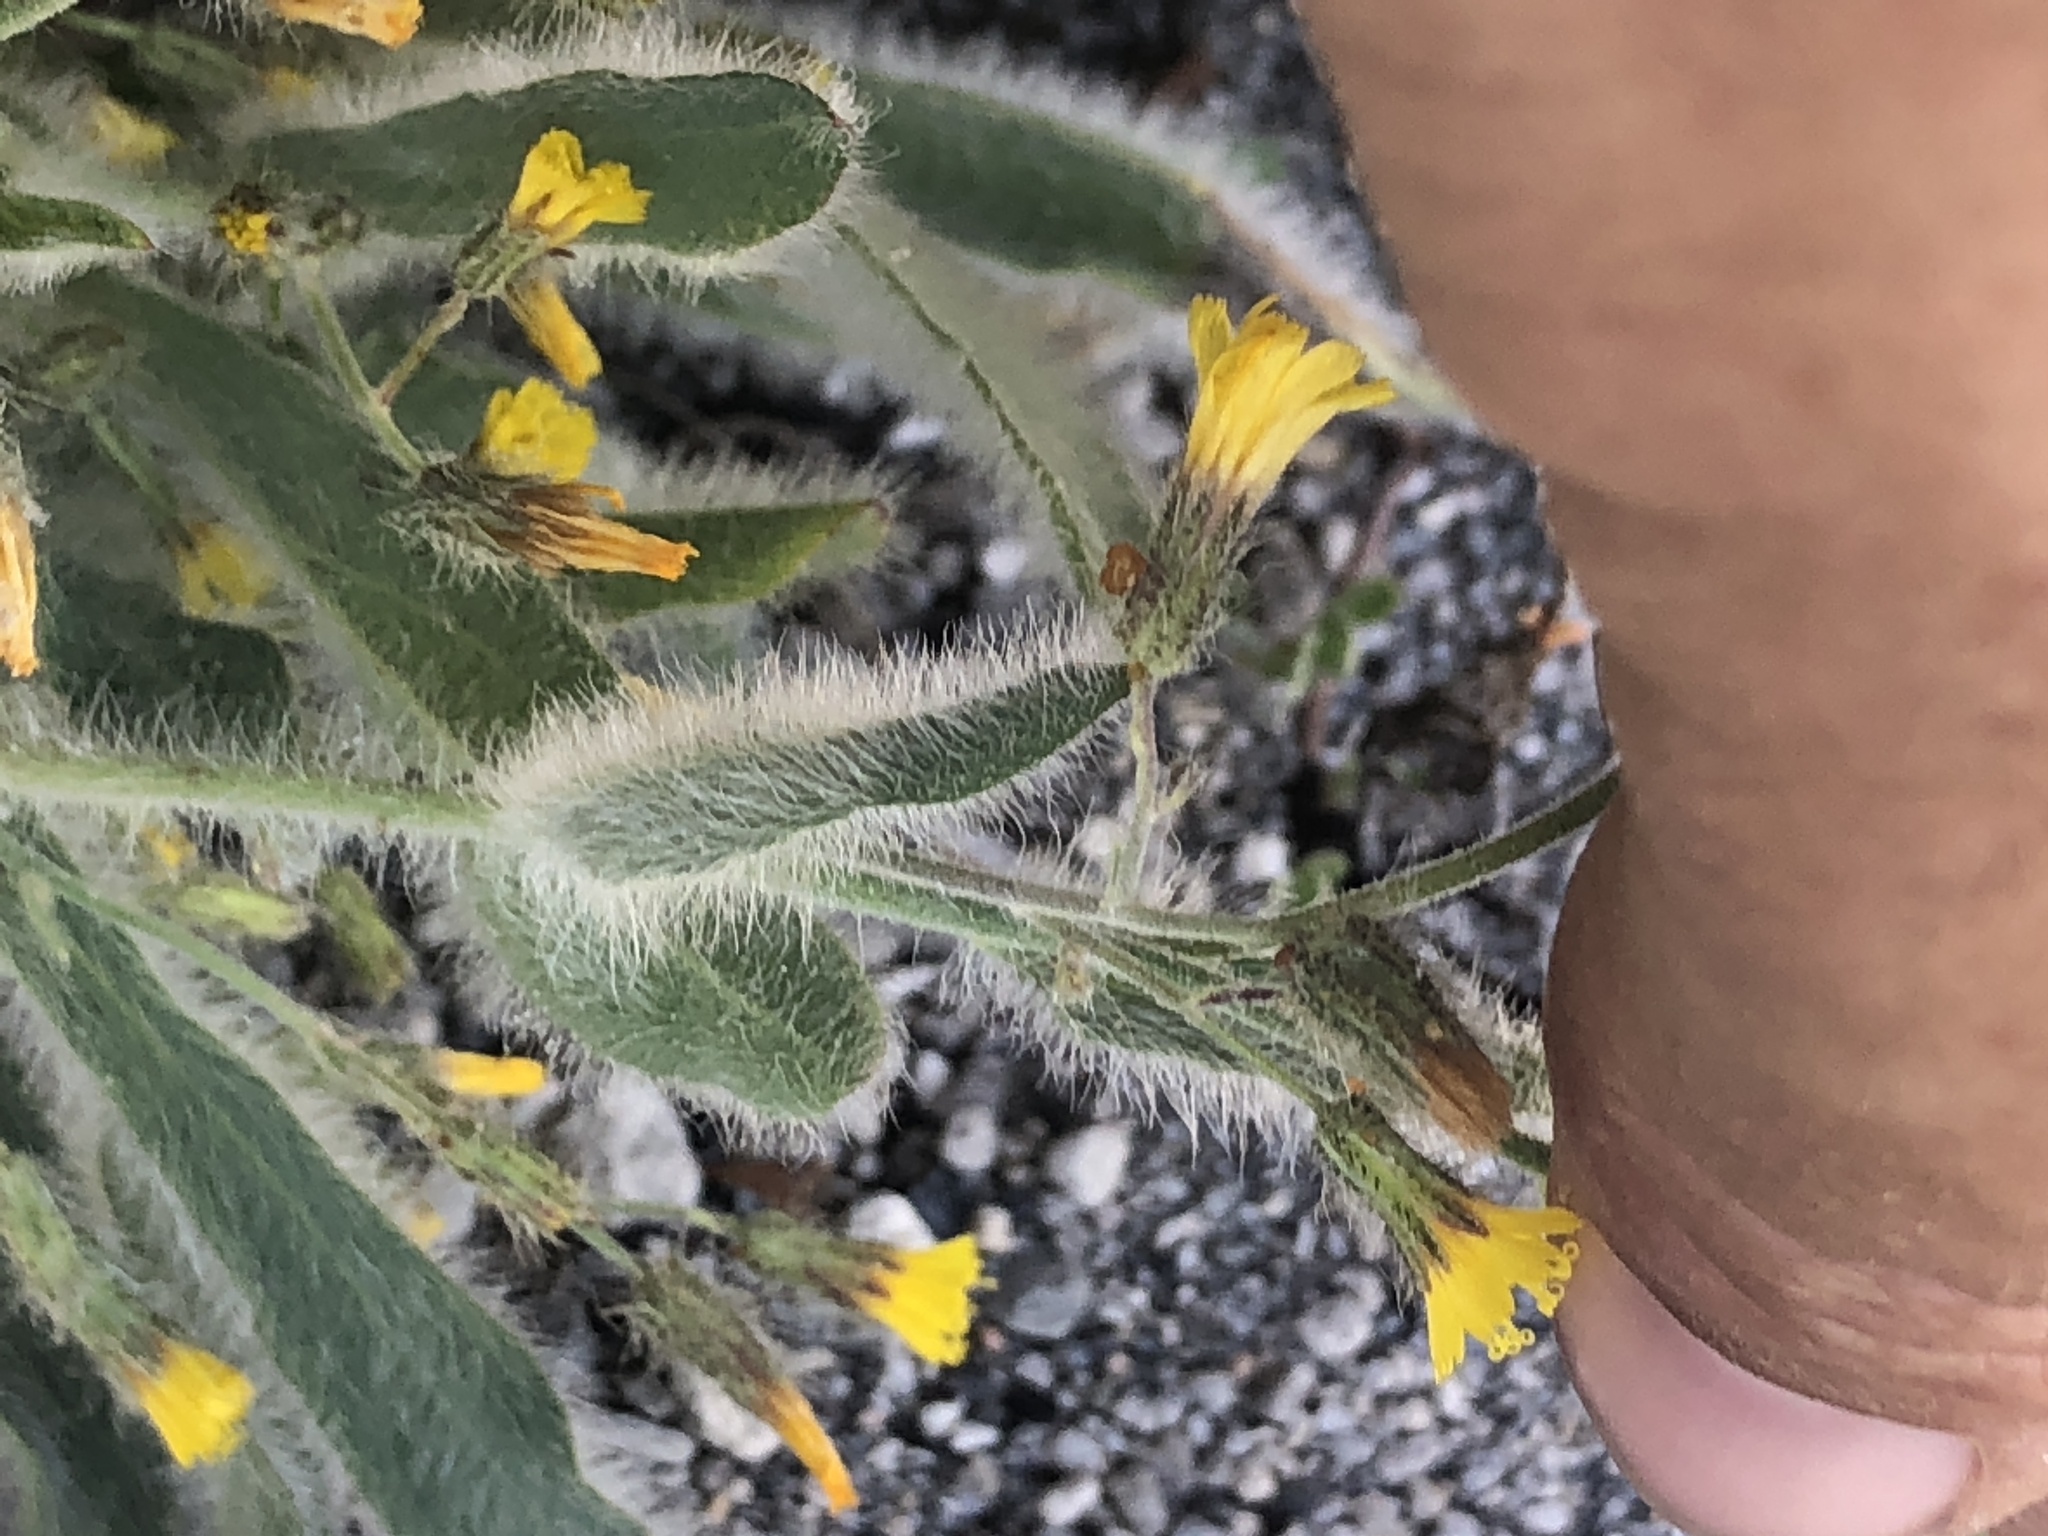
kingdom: Plantae
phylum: Tracheophyta
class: Magnoliopsida
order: Asterales
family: Asteraceae
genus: Hieracium
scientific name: Hieracium horridum
